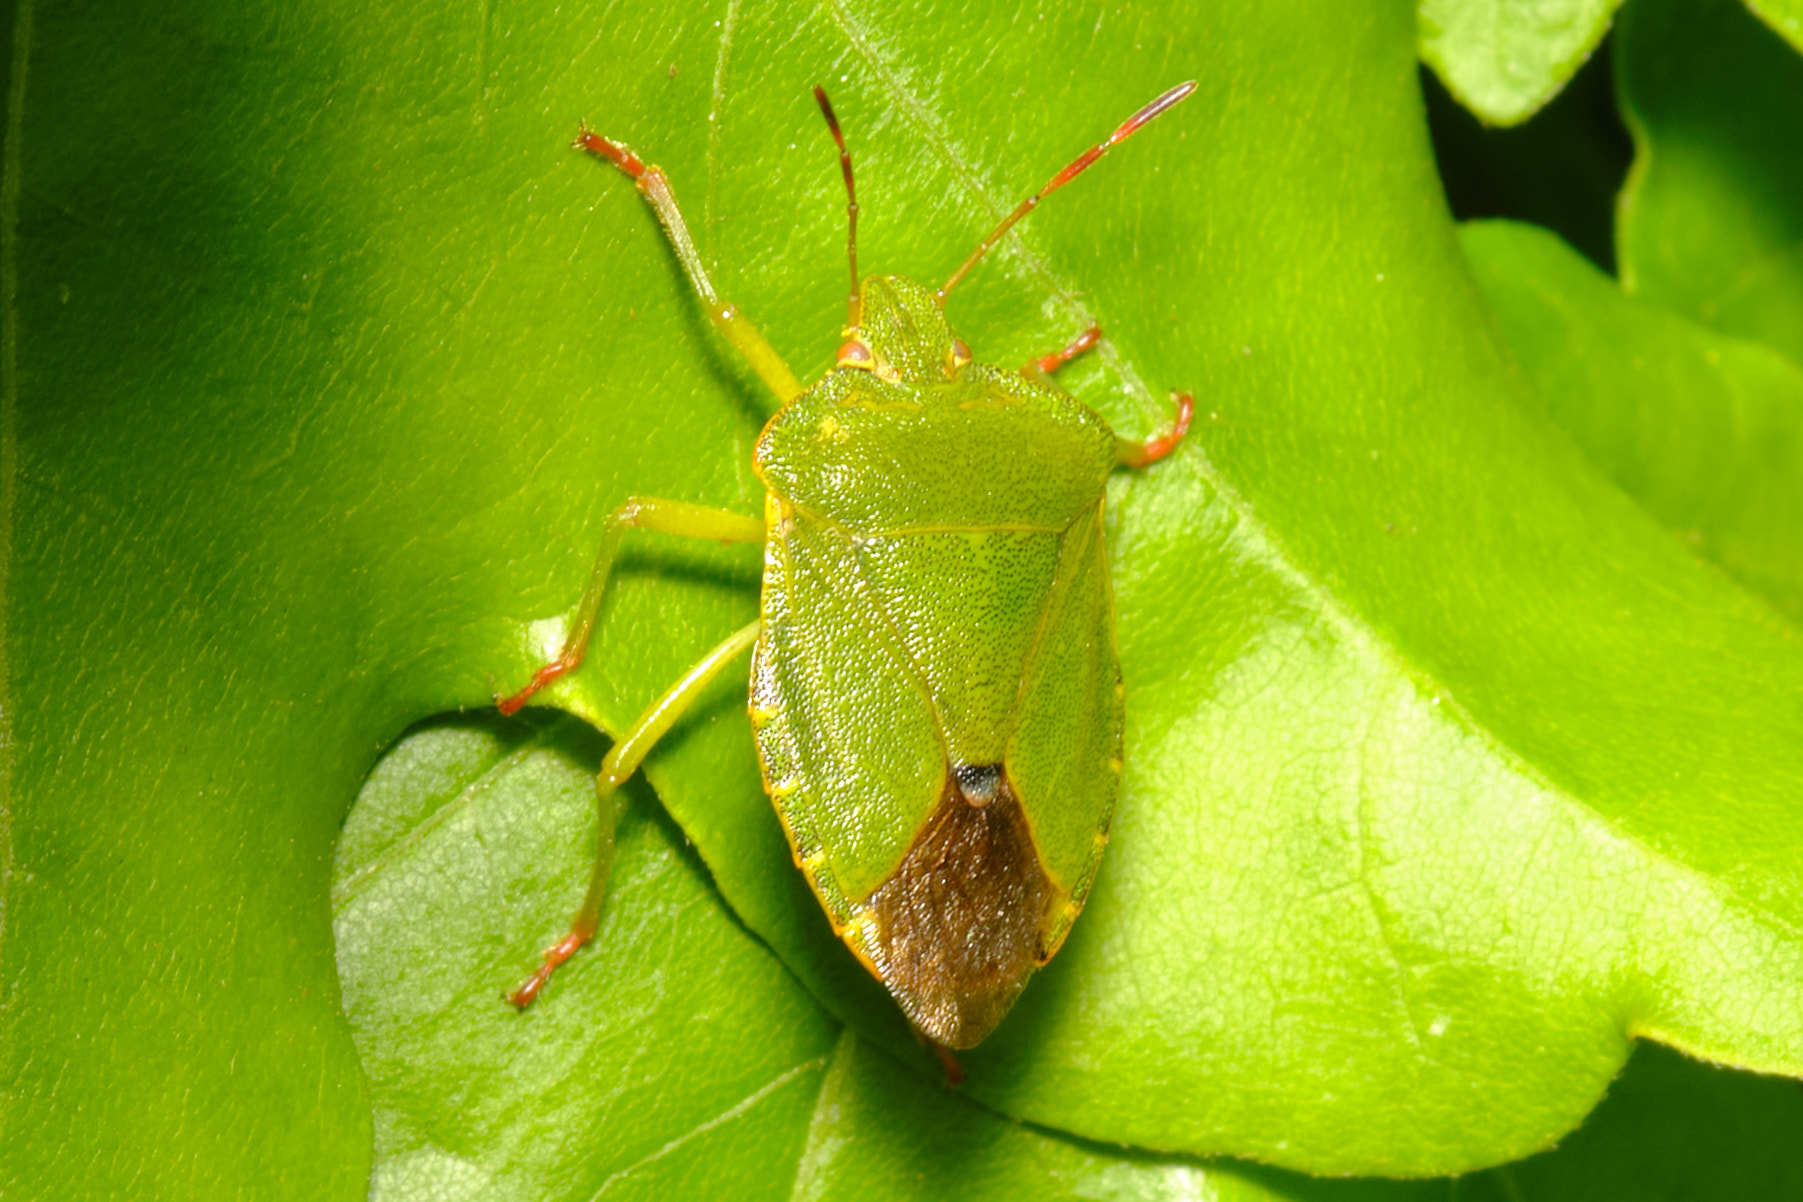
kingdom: Animalia
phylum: Arthropoda
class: Insecta
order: Hemiptera
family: Pentatomidae
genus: Palomena
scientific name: Palomena prasina
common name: Green shieldbug
